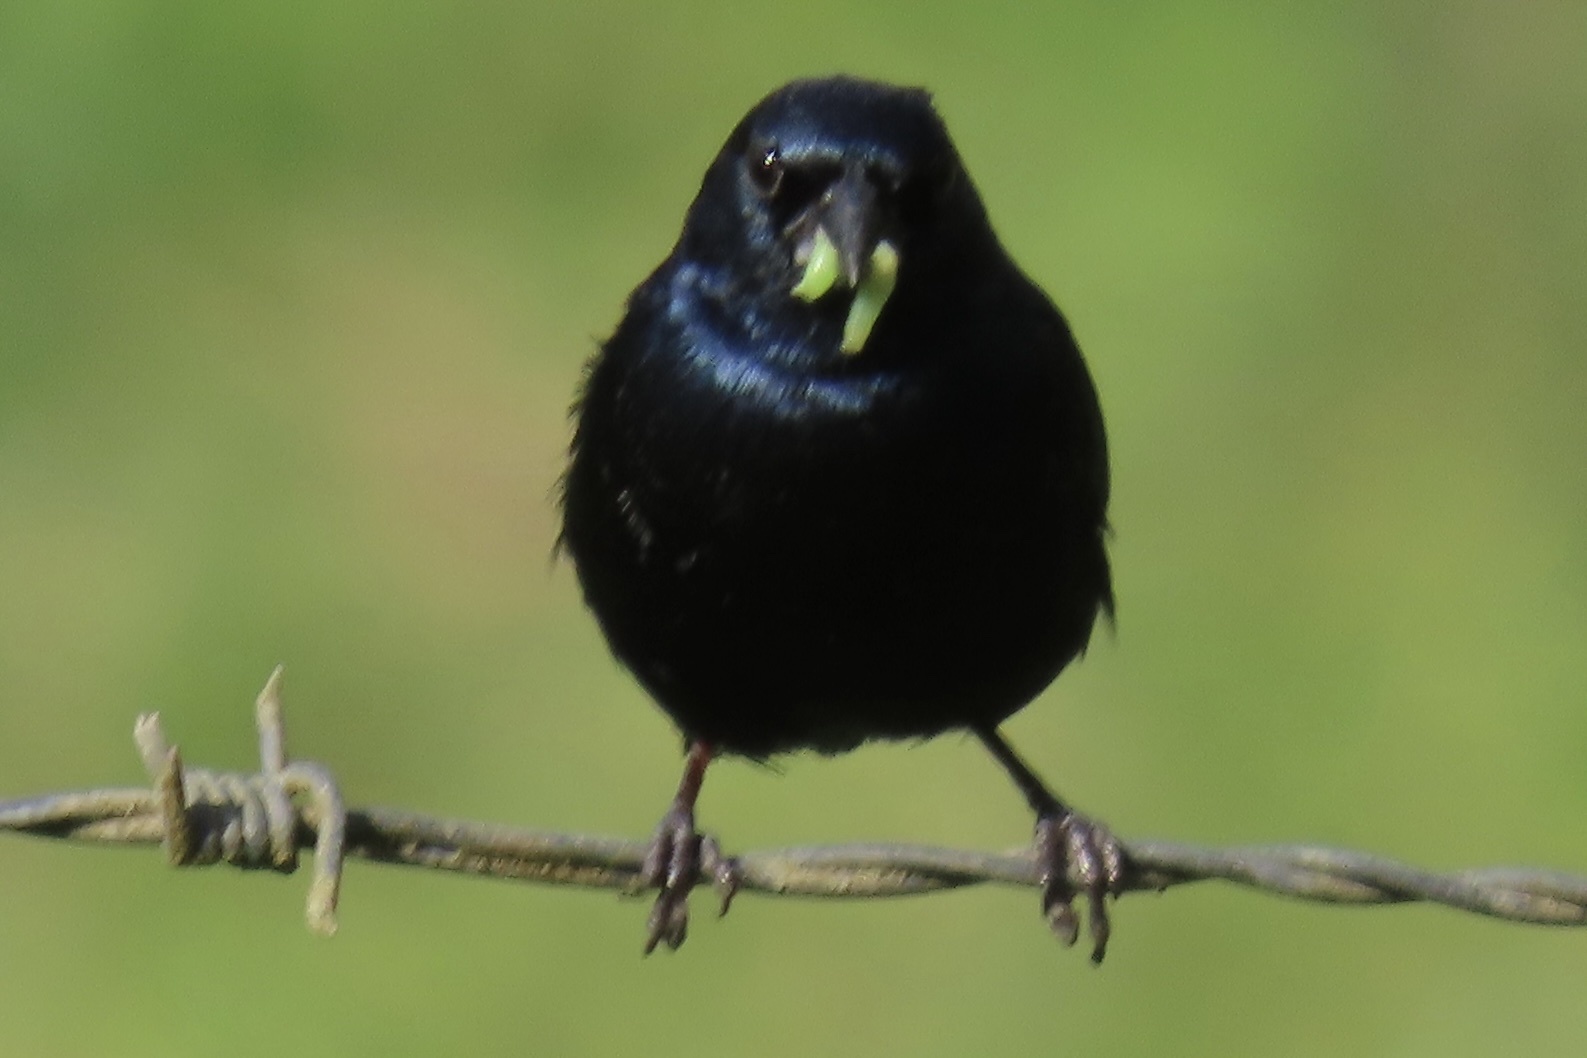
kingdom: Animalia
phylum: Chordata
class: Aves
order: Passeriformes
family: Thraupidae
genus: Volatinia
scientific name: Volatinia jacarina
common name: Blue-black grassquit
